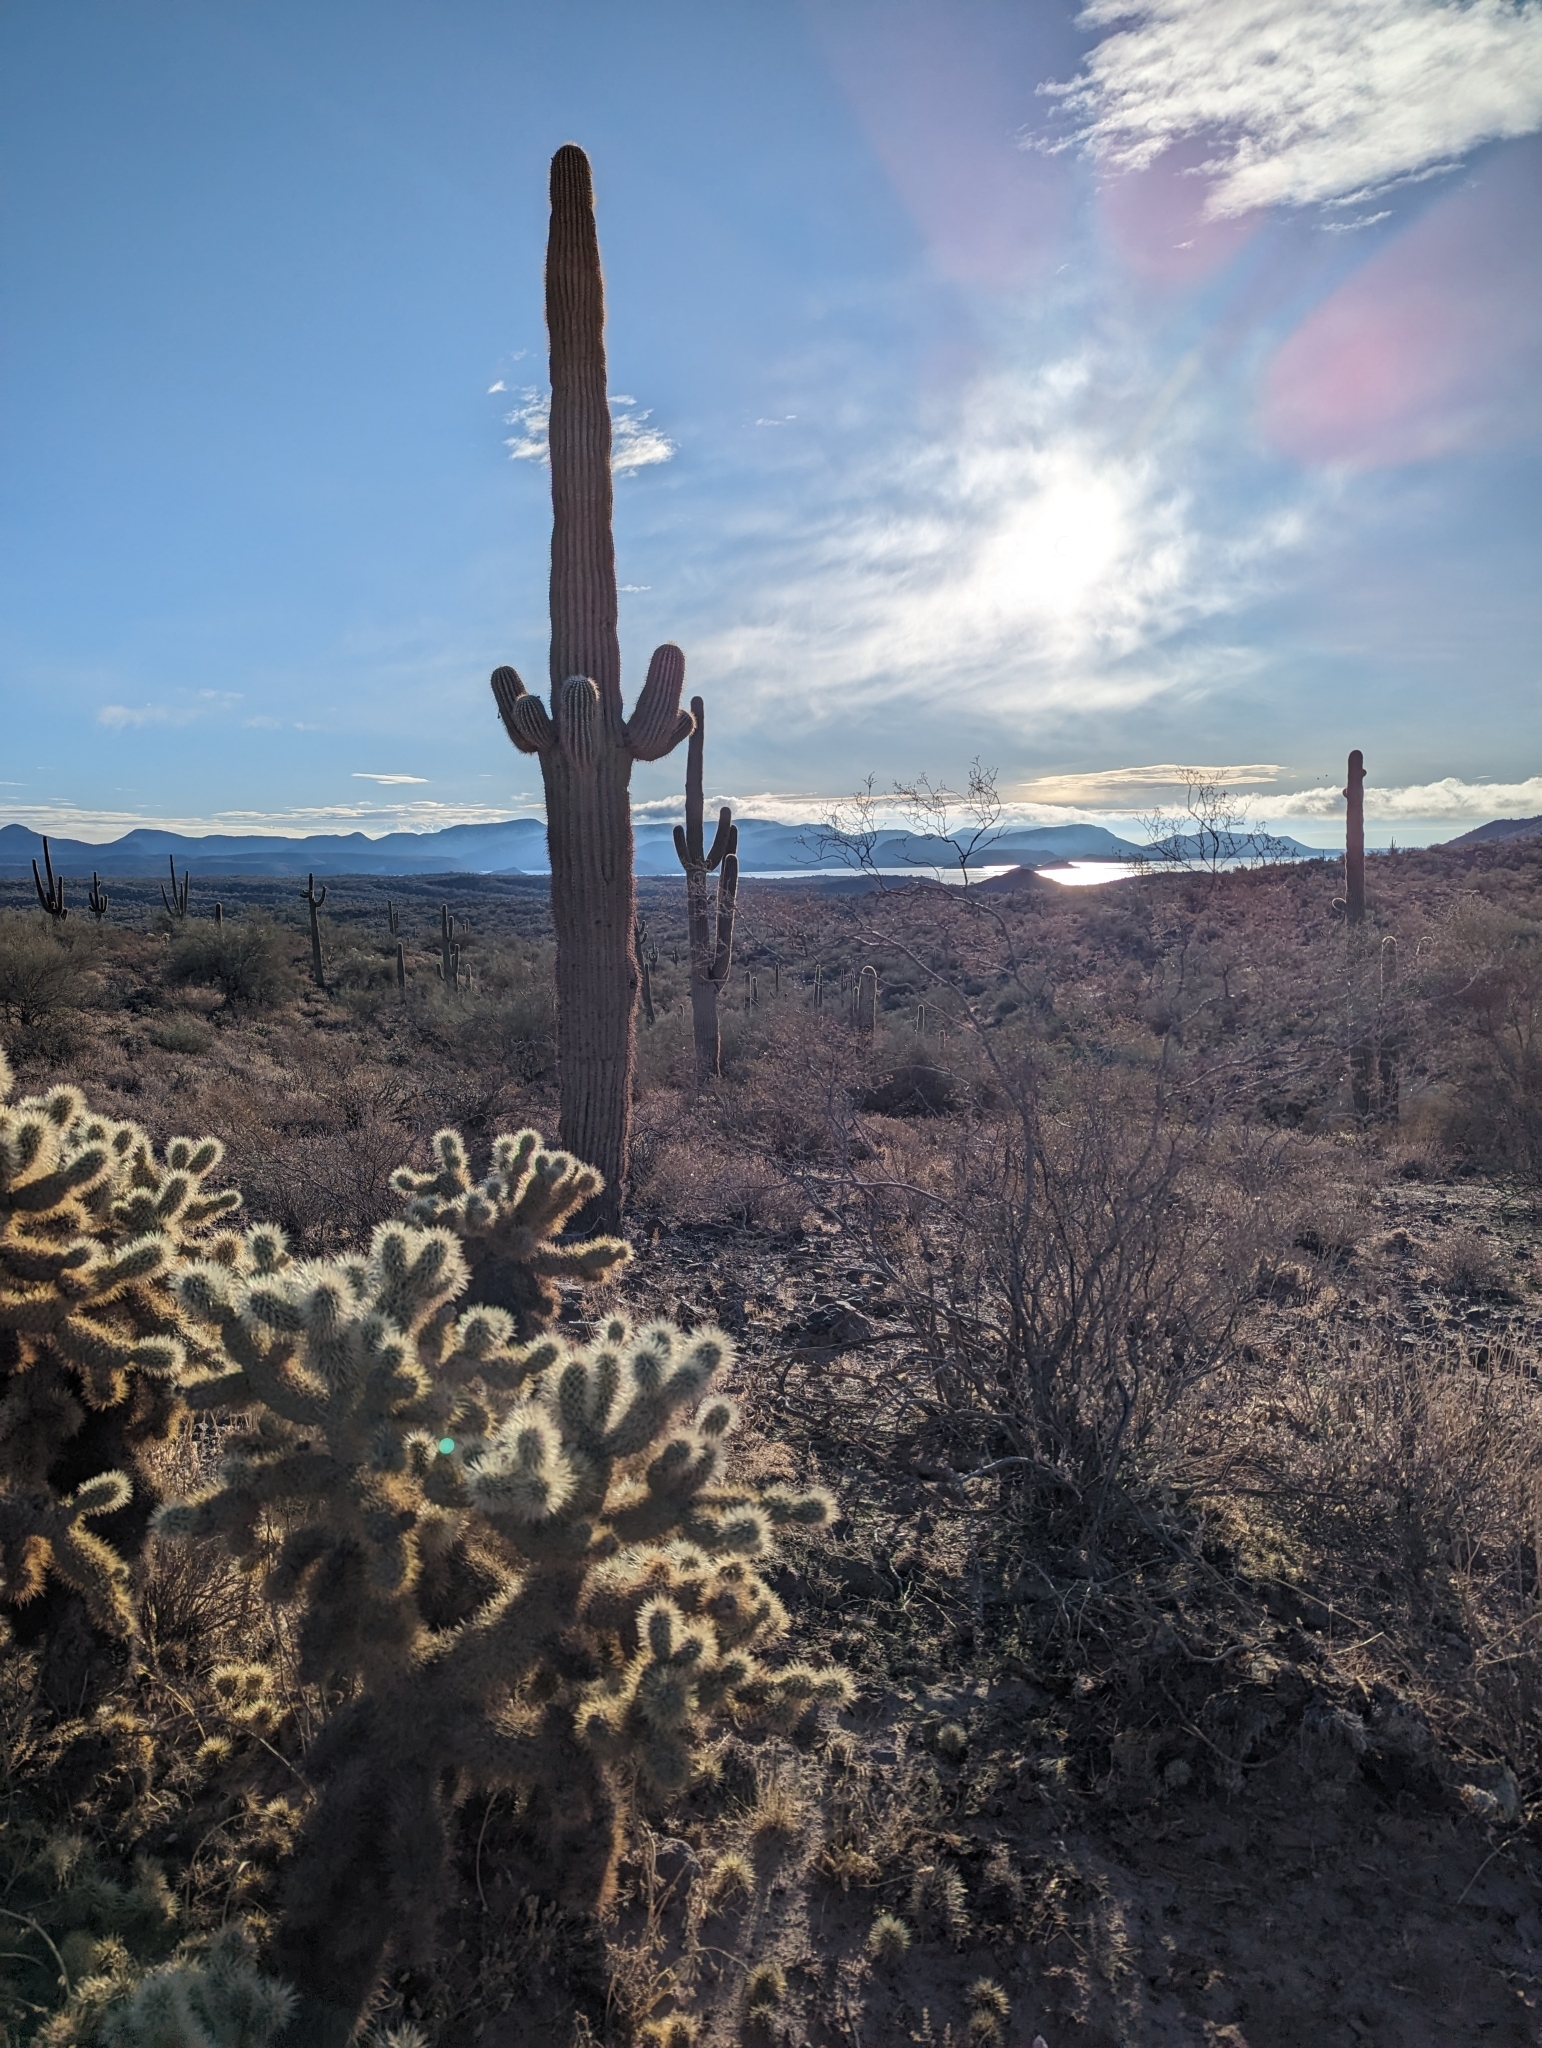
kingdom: Plantae
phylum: Tracheophyta
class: Magnoliopsida
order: Caryophyllales
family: Cactaceae
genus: Carnegiea
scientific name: Carnegiea gigantea
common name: Saguaro
